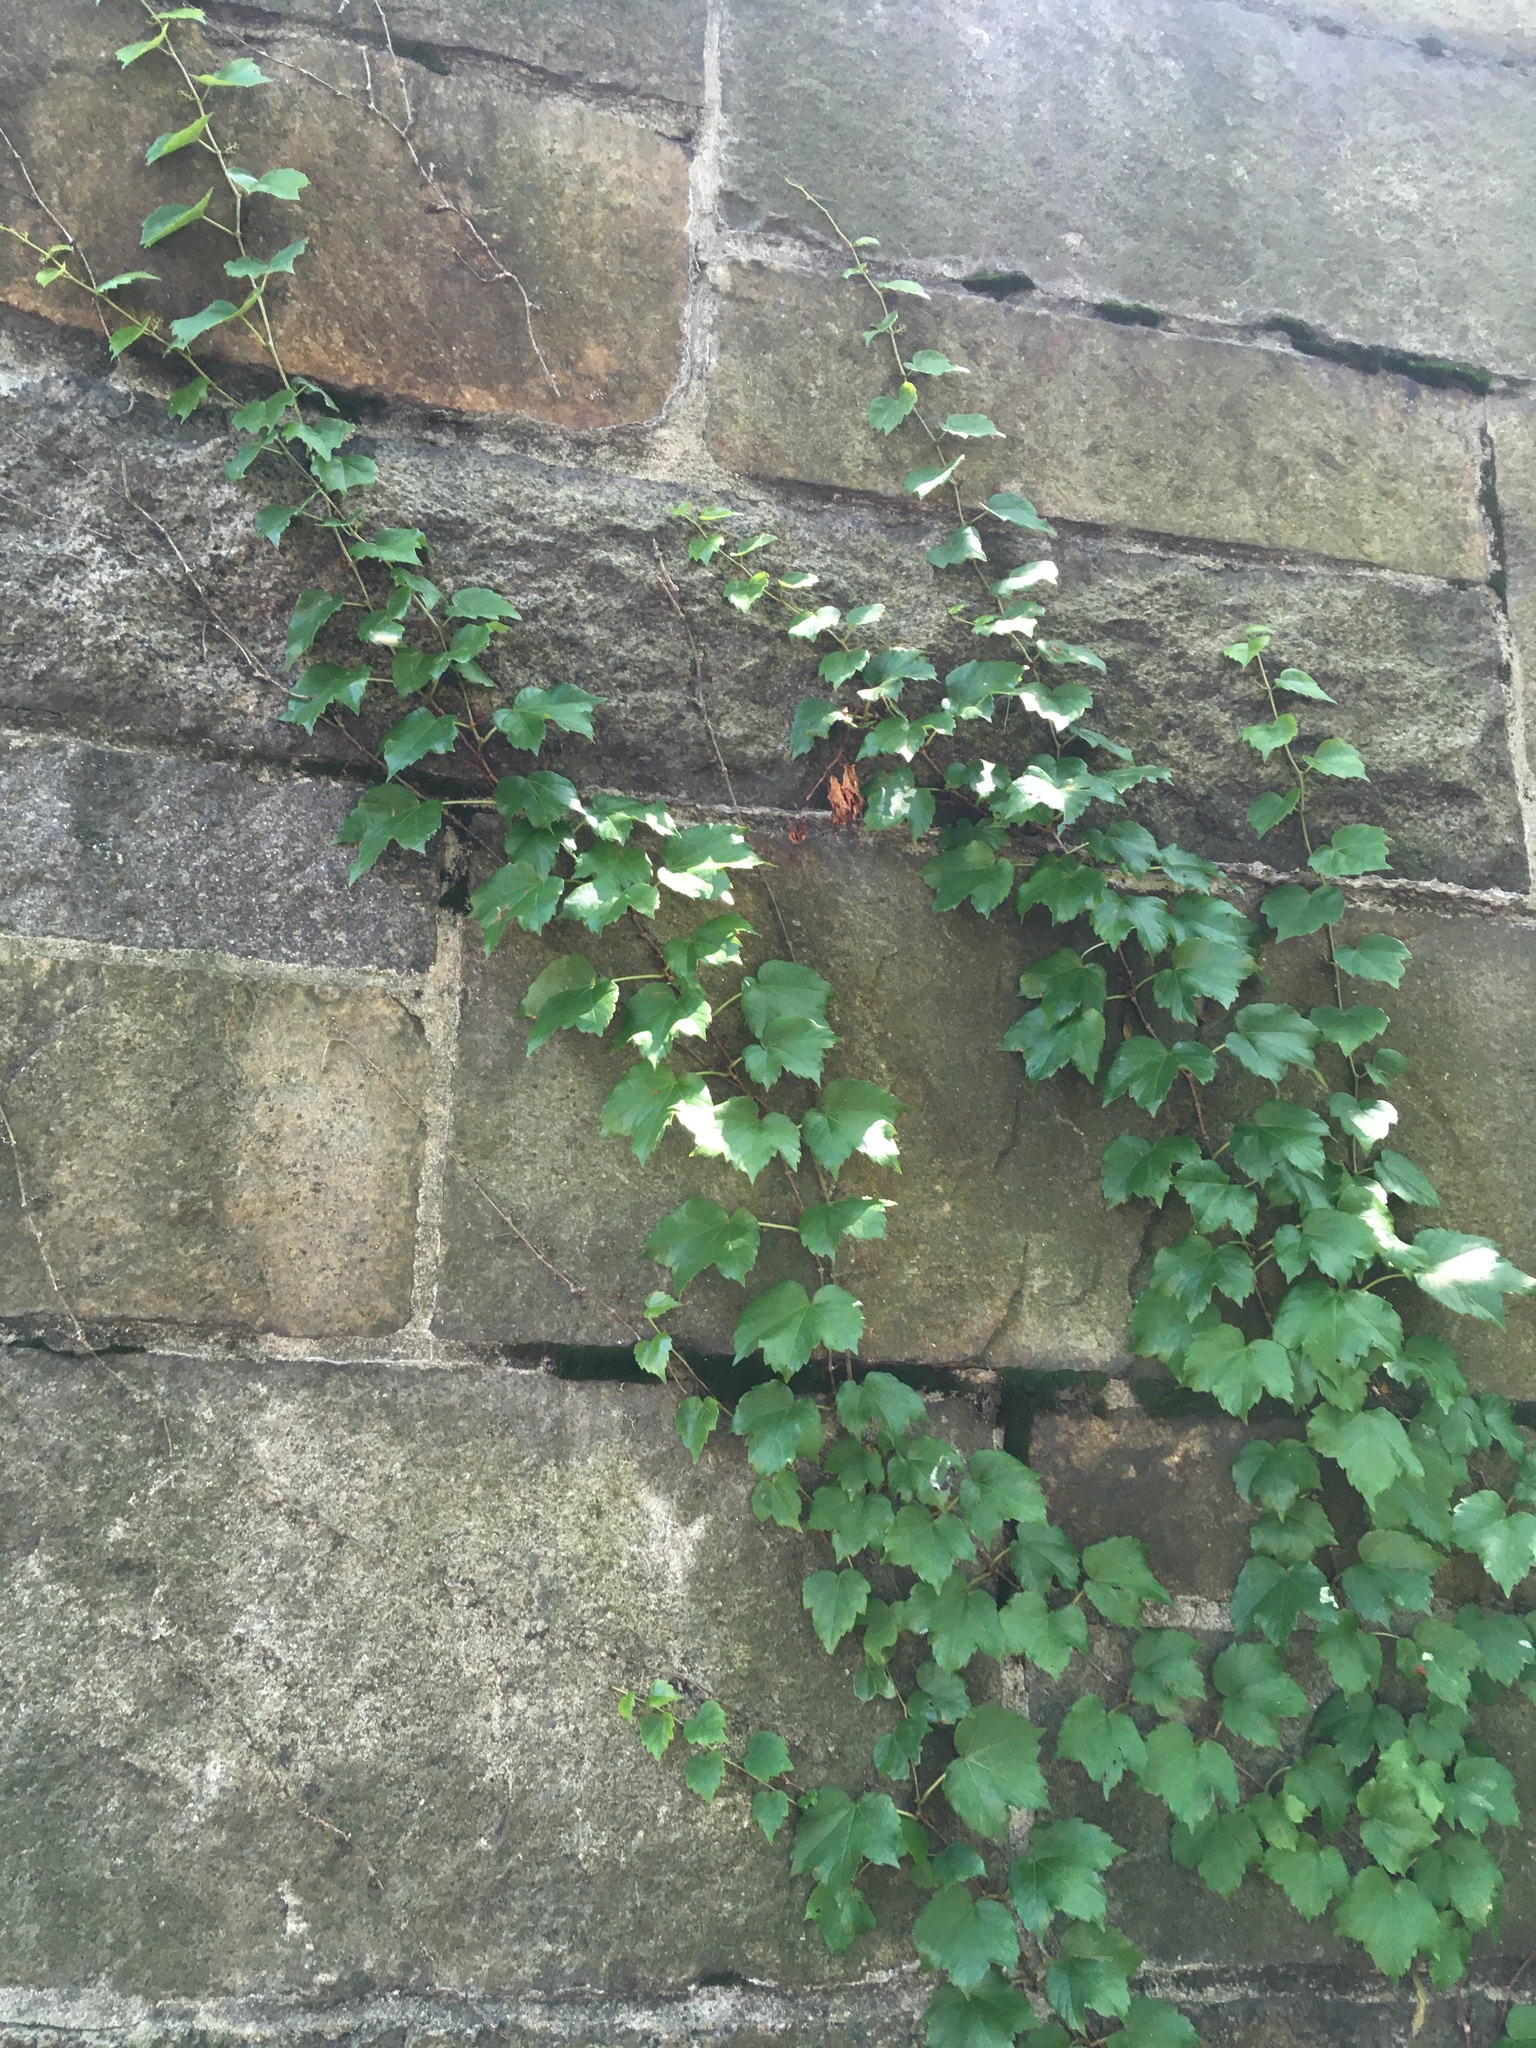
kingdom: Plantae
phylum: Tracheophyta
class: Magnoliopsida
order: Vitales
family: Vitaceae
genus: Parthenocissus
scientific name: Parthenocissus tricuspidata
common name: Boston ivy
